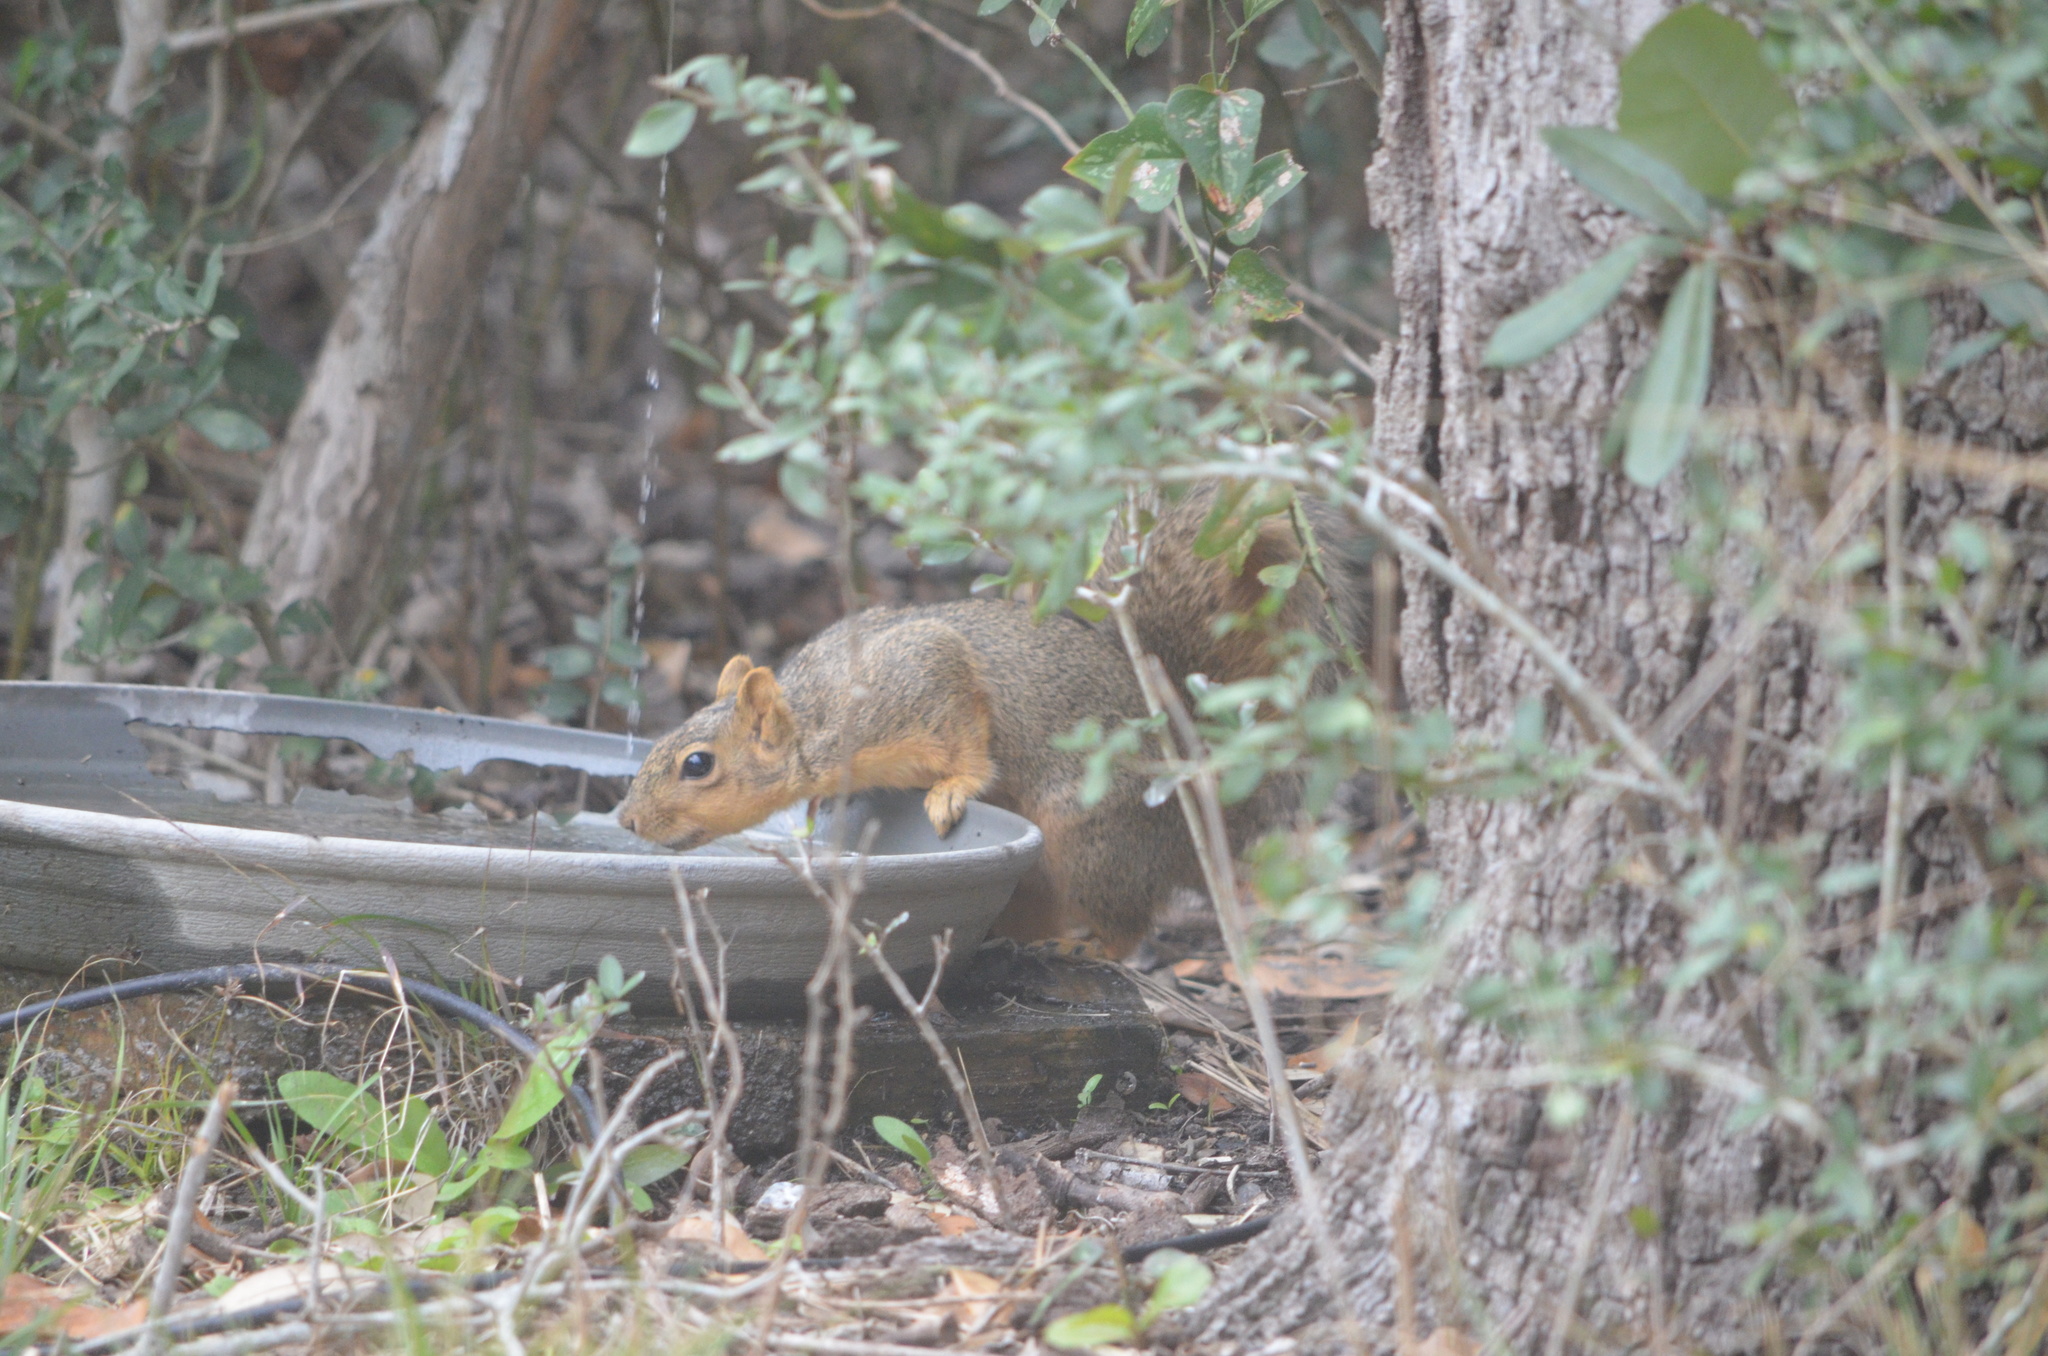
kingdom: Animalia
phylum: Chordata
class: Mammalia
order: Rodentia
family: Sciuridae
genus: Sciurus
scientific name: Sciurus niger
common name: Fox squirrel
